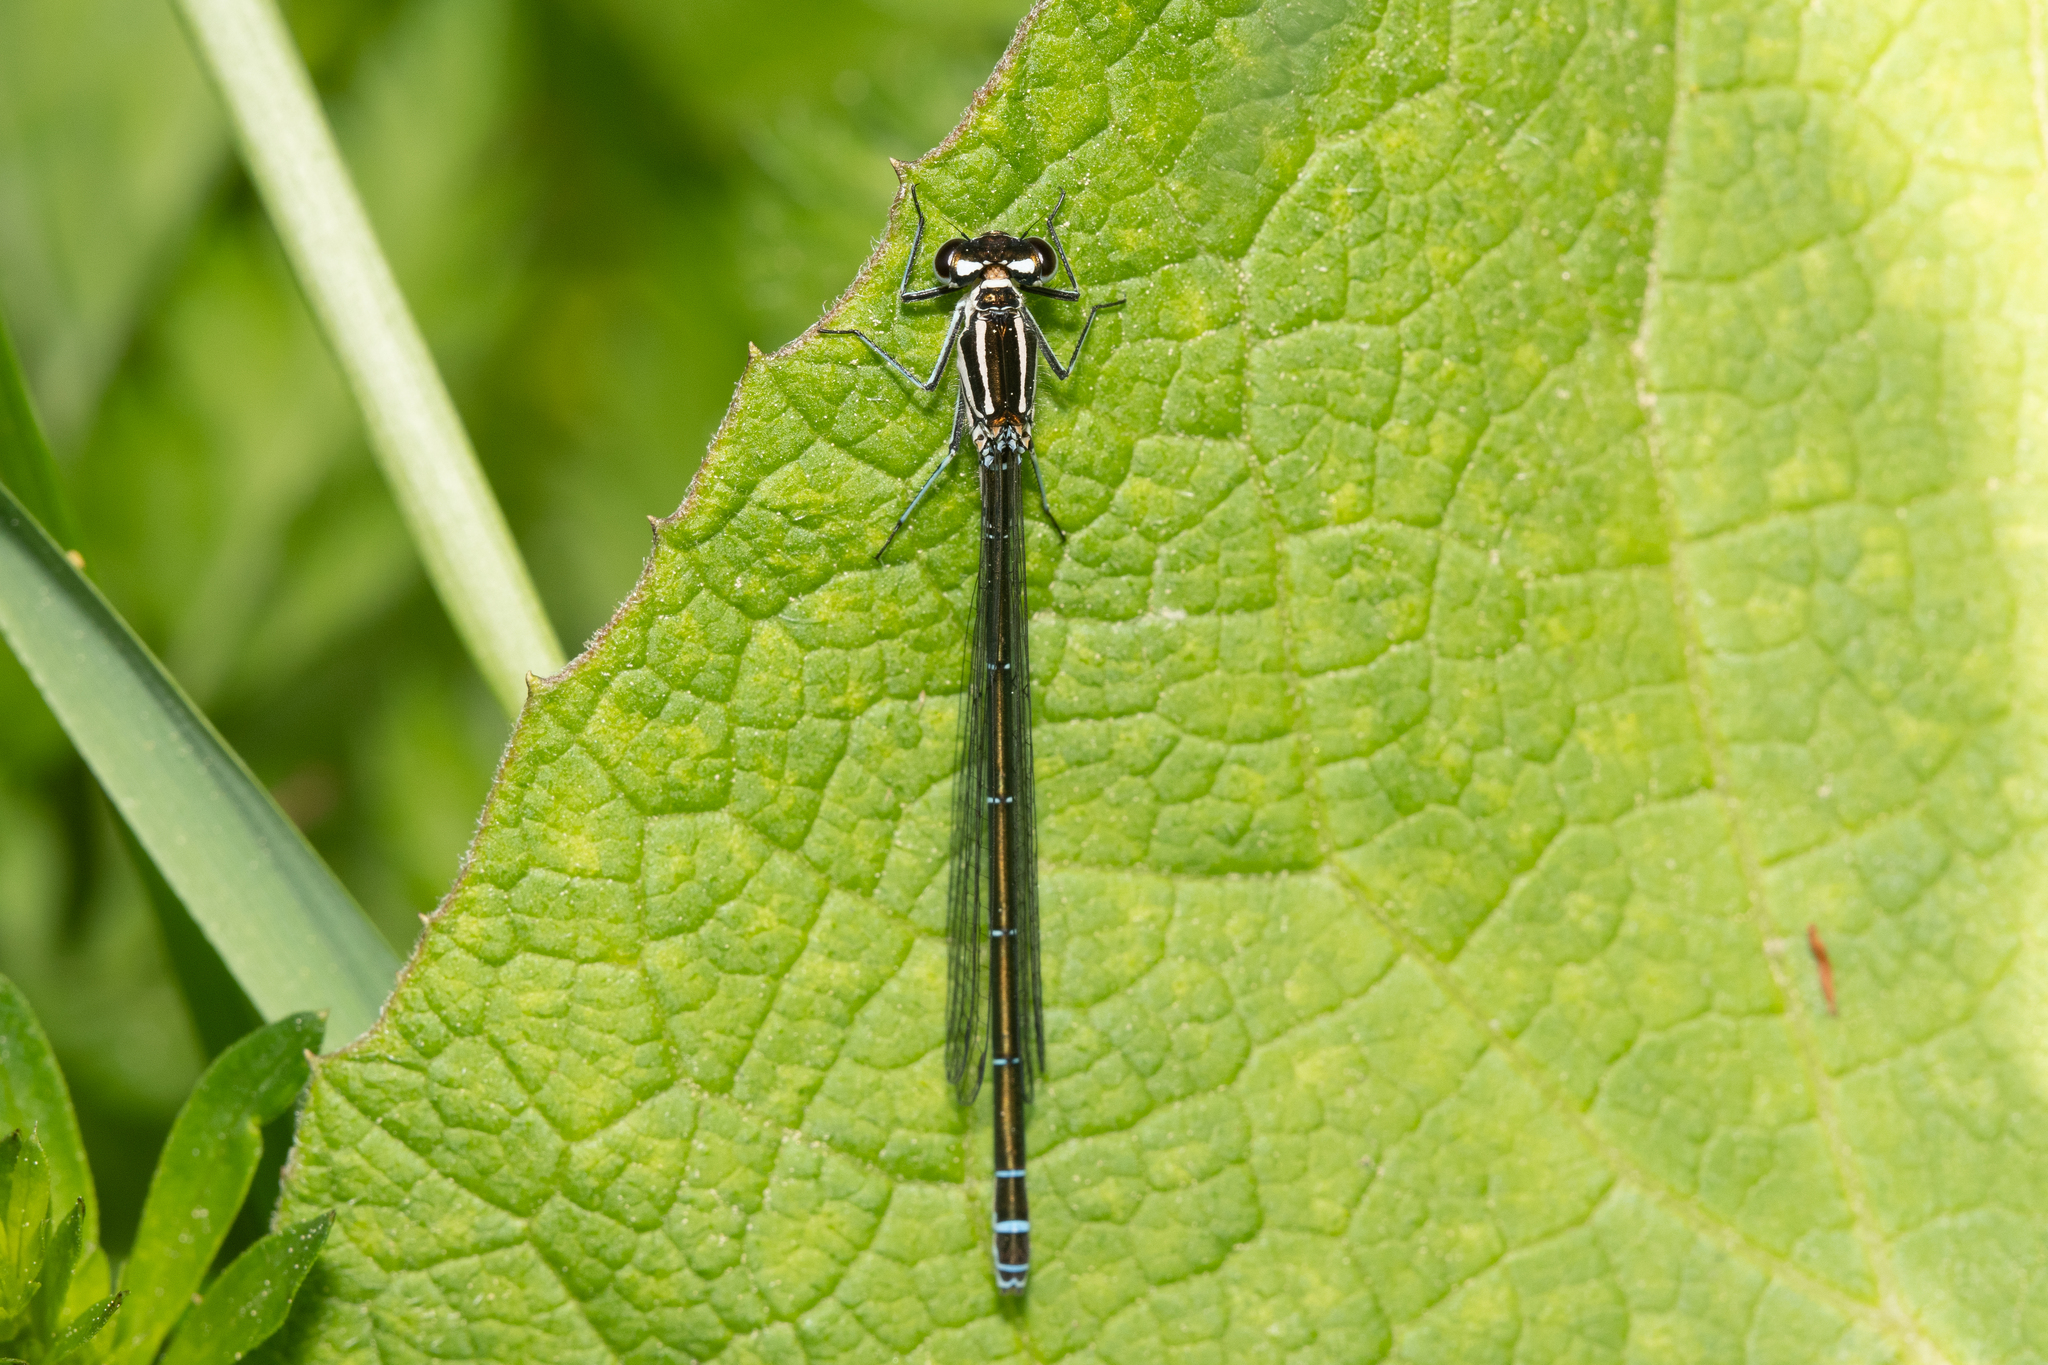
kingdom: Animalia
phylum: Arthropoda
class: Insecta
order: Odonata
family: Coenagrionidae
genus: Coenagrion
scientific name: Coenagrion puella
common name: Azure damselfly
